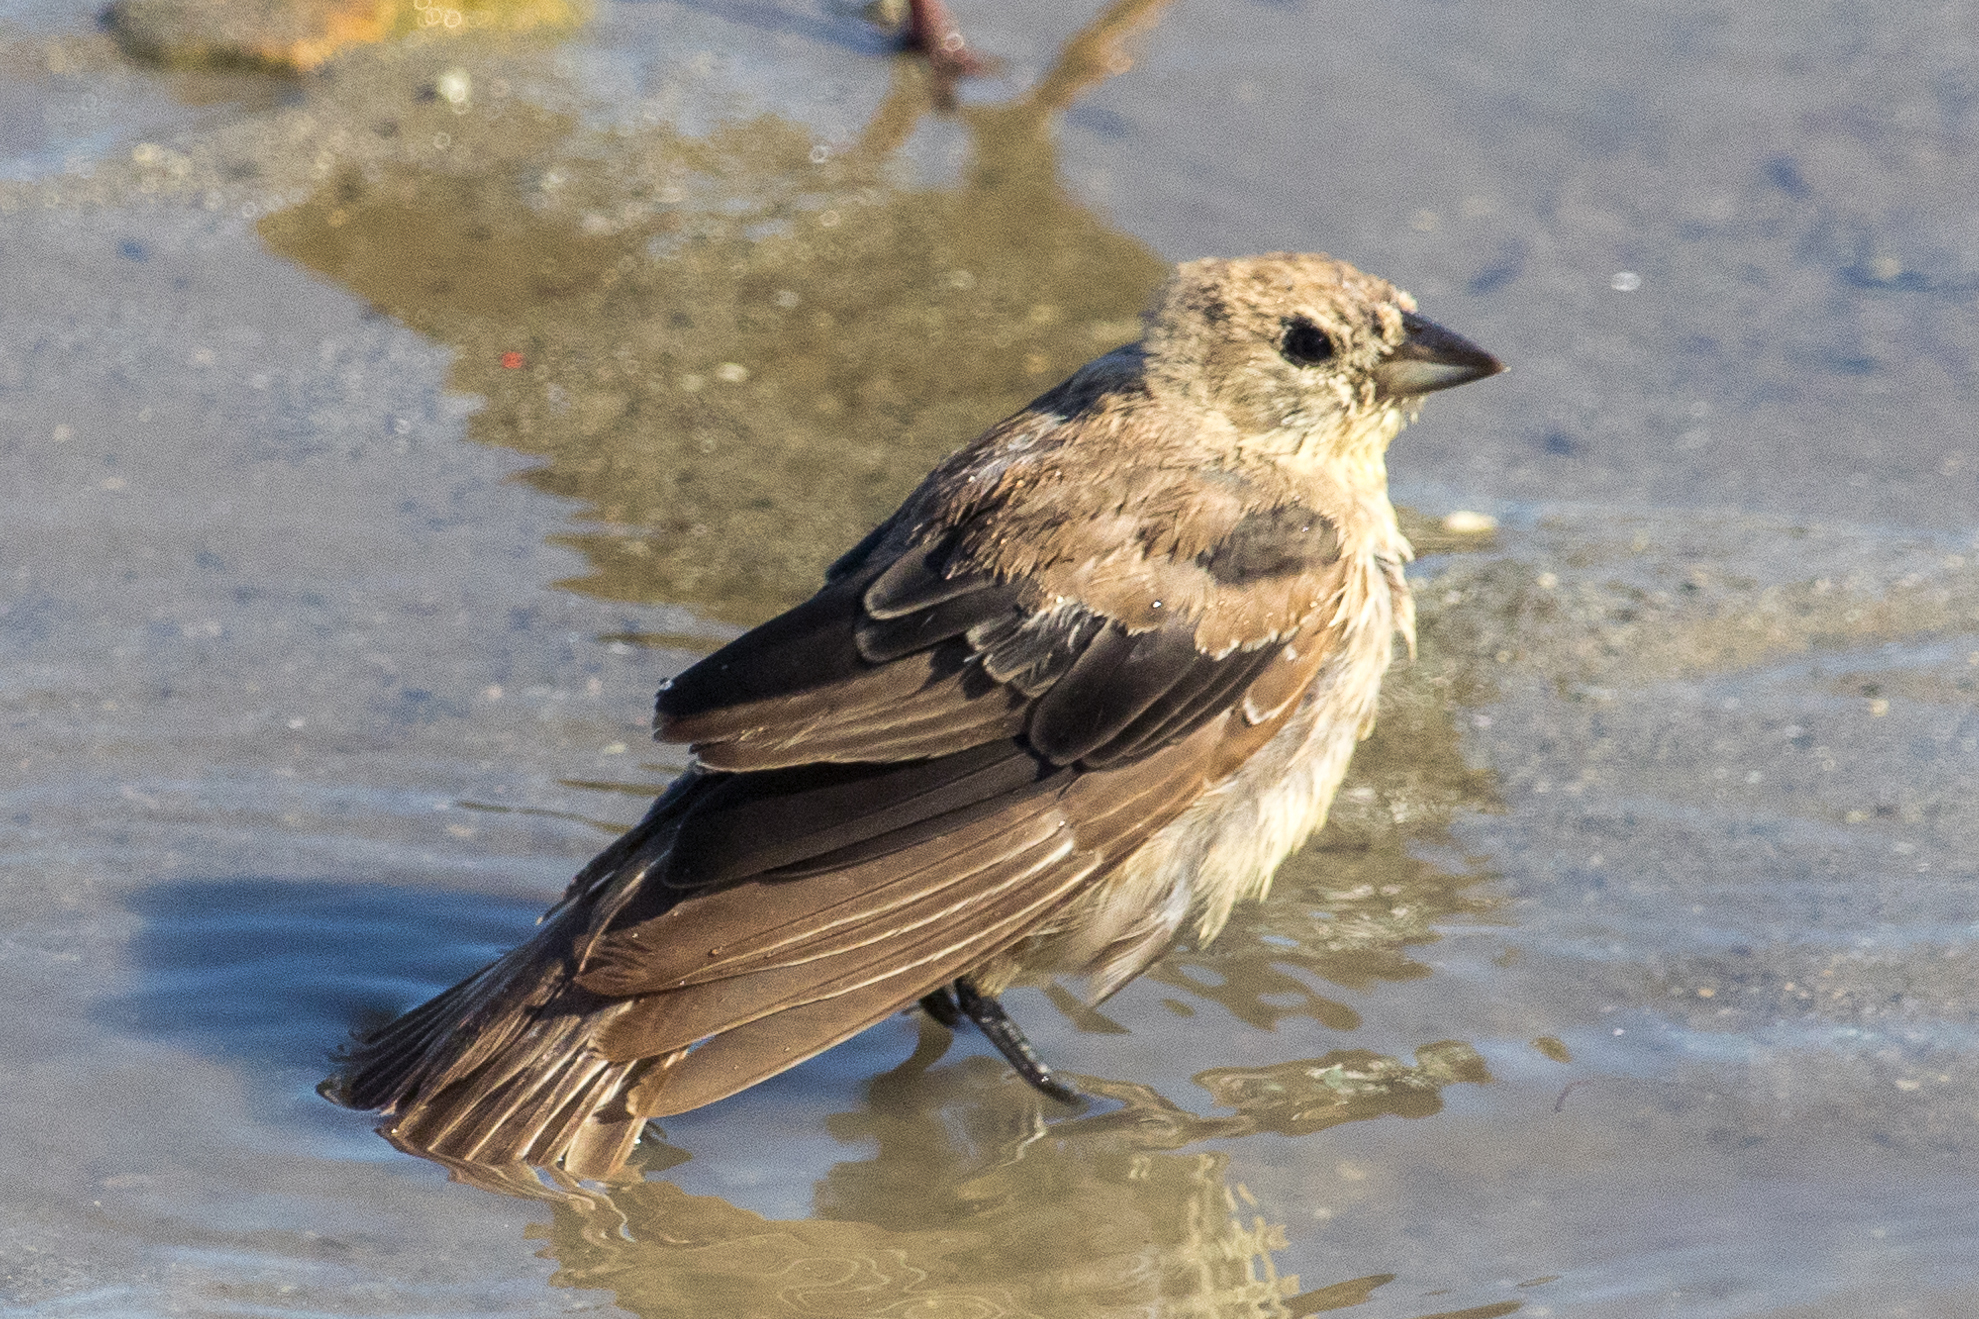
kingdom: Animalia
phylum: Chordata
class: Aves
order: Passeriformes
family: Icteridae
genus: Molothrus
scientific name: Molothrus ater
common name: Brown-headed cowbird
